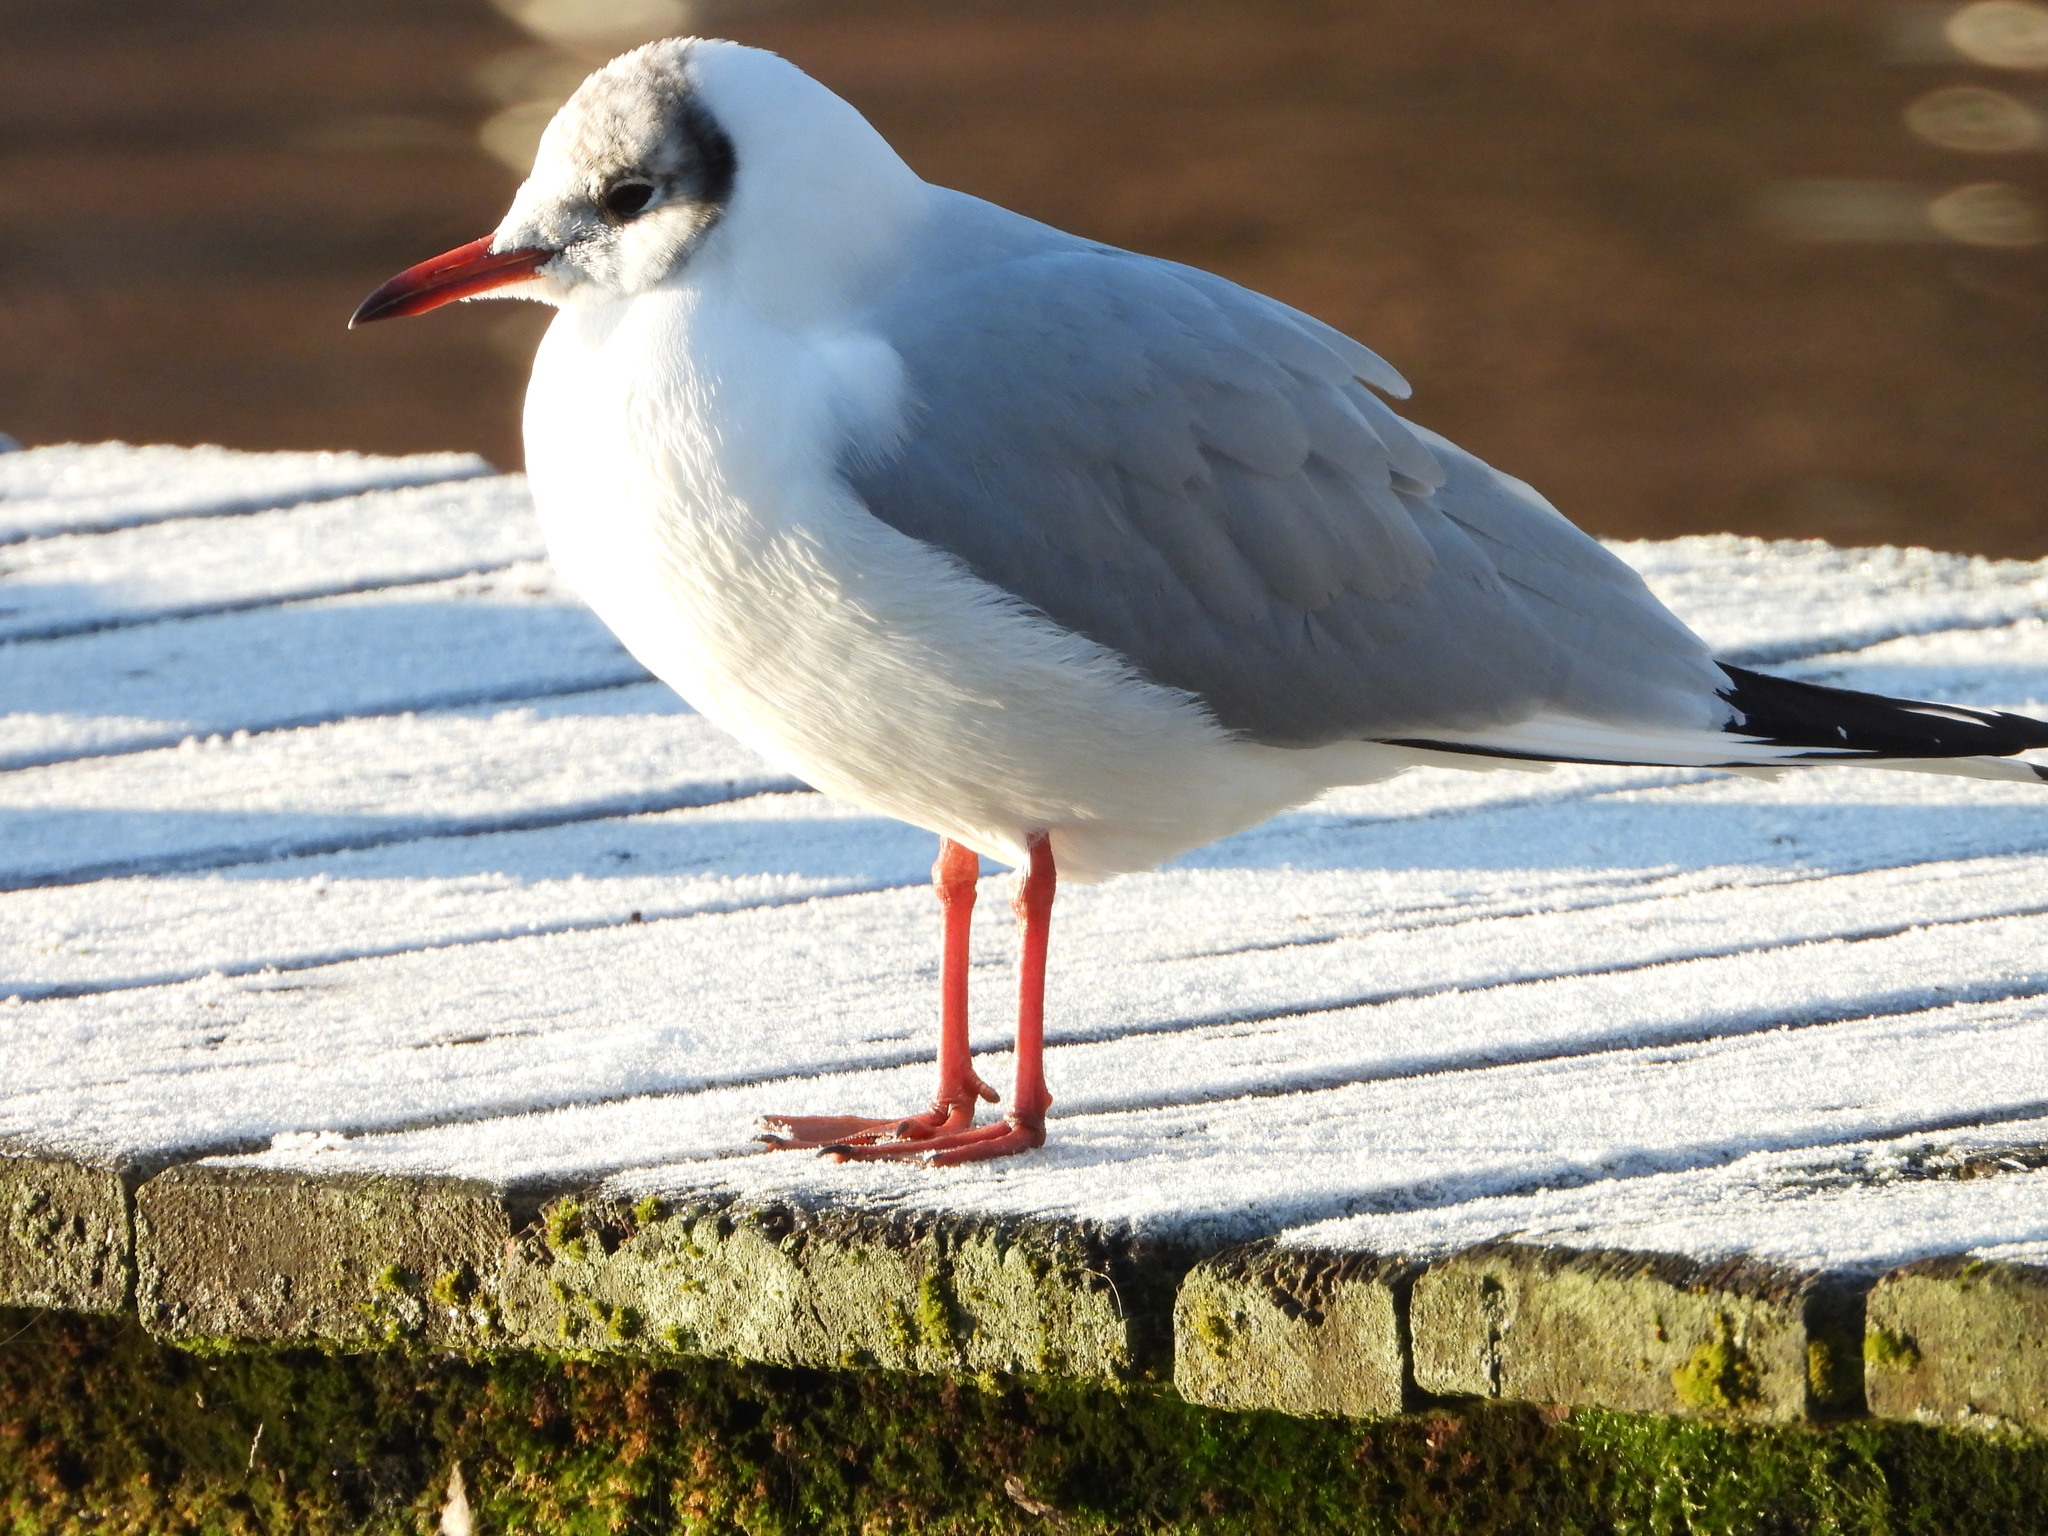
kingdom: Animalia
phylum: Chordata
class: Aves
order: Charadriiformes
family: Laridae
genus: Chroicocephalus
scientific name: Chroicocephalus ridibundus
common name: Black-headed gull
